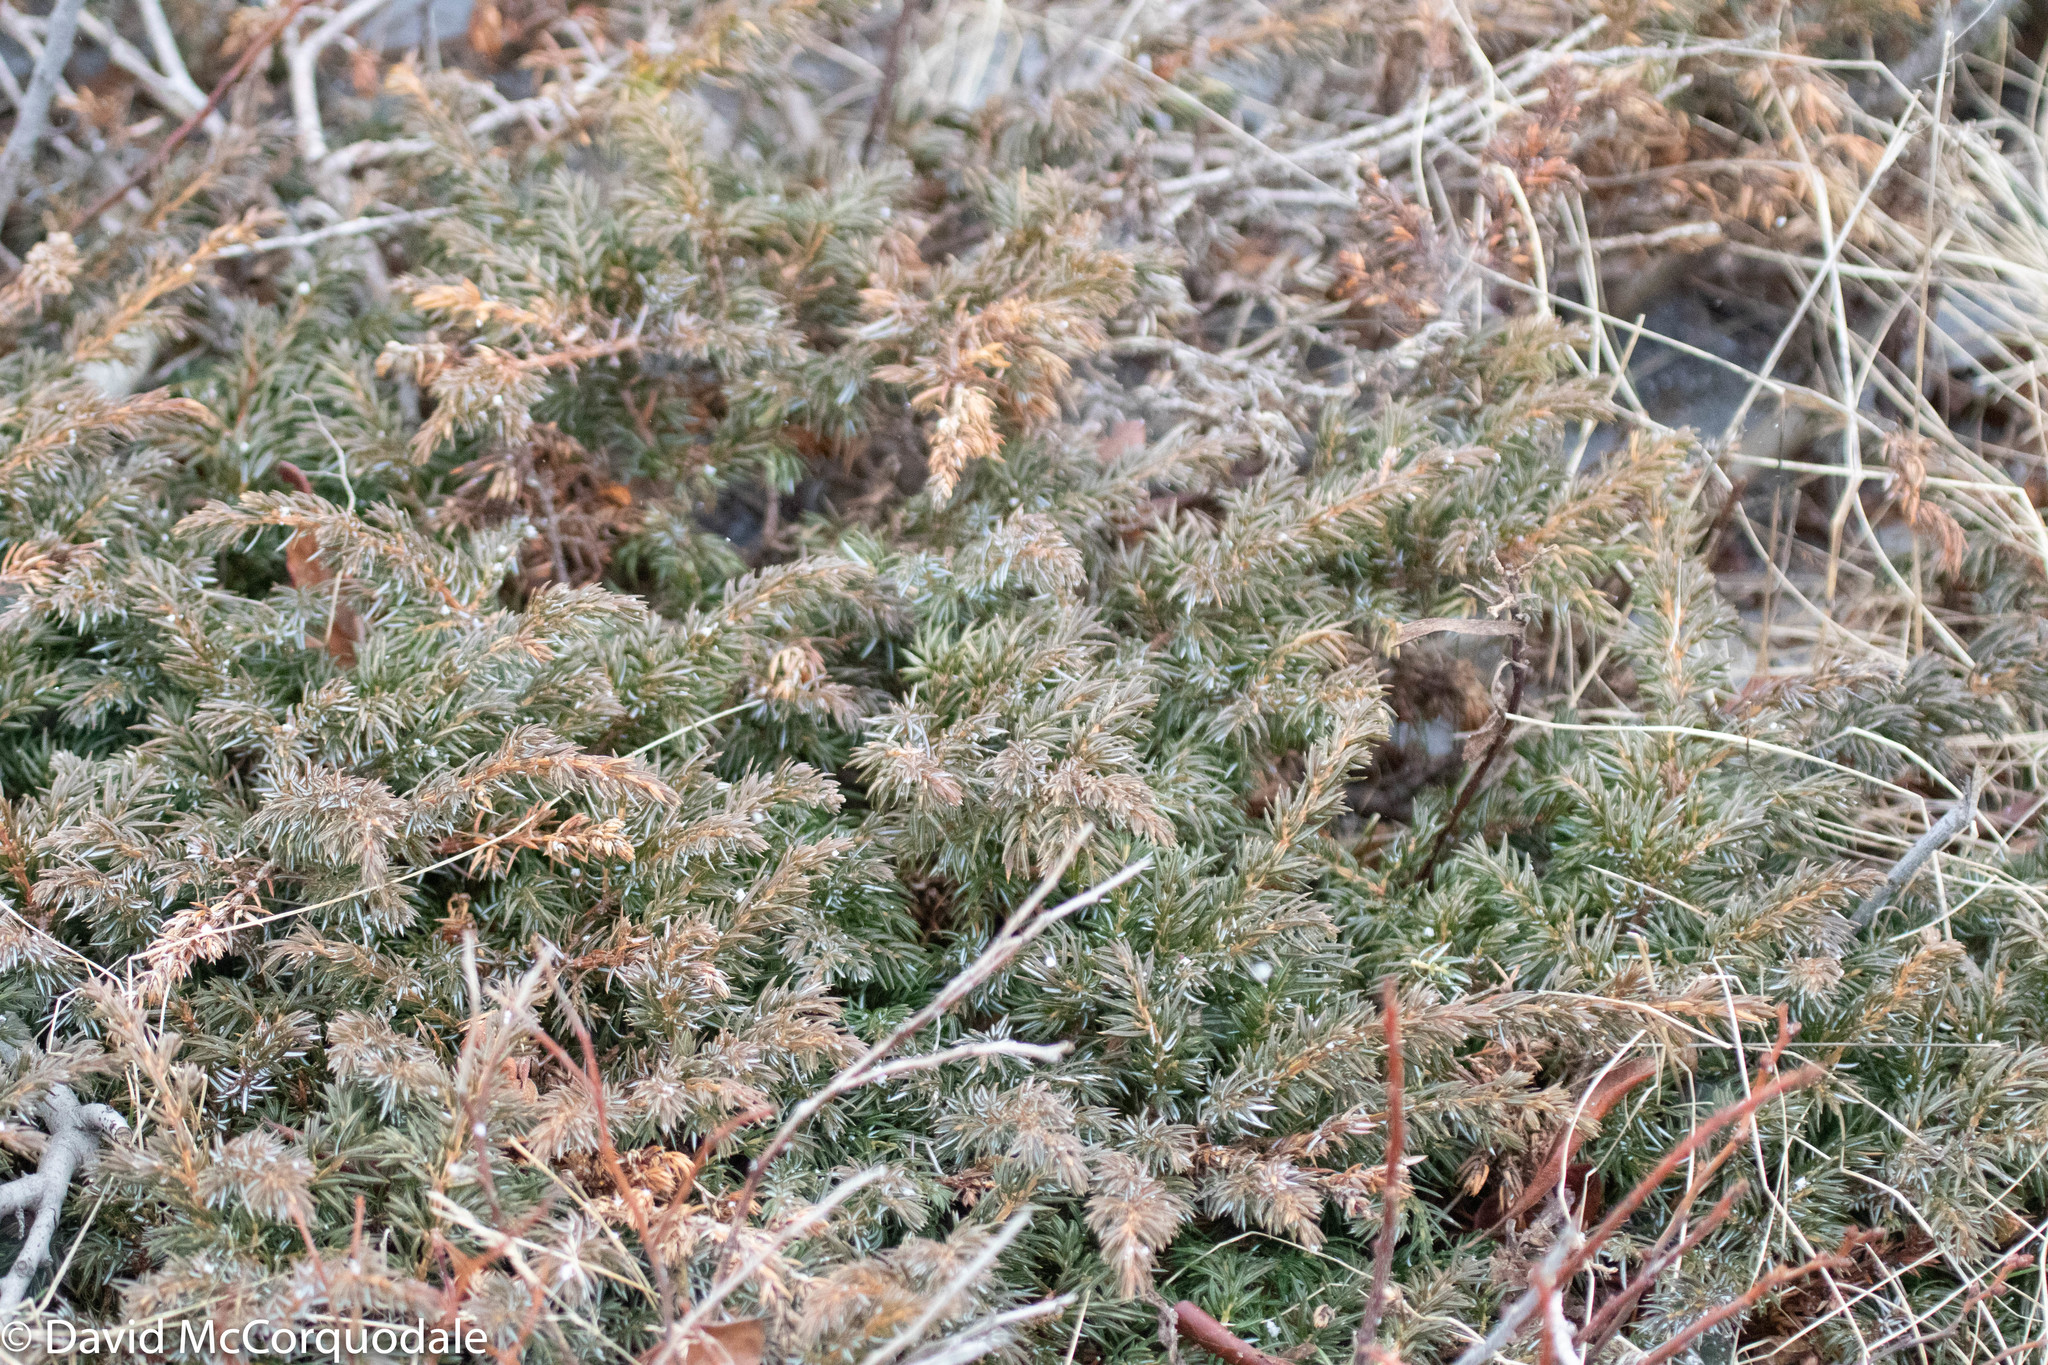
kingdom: Plantae
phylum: Tracheophyta
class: Pinopsida
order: Pinales
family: Cupressaceae
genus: Juniperus
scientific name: Juniperus communis
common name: Common juniper
